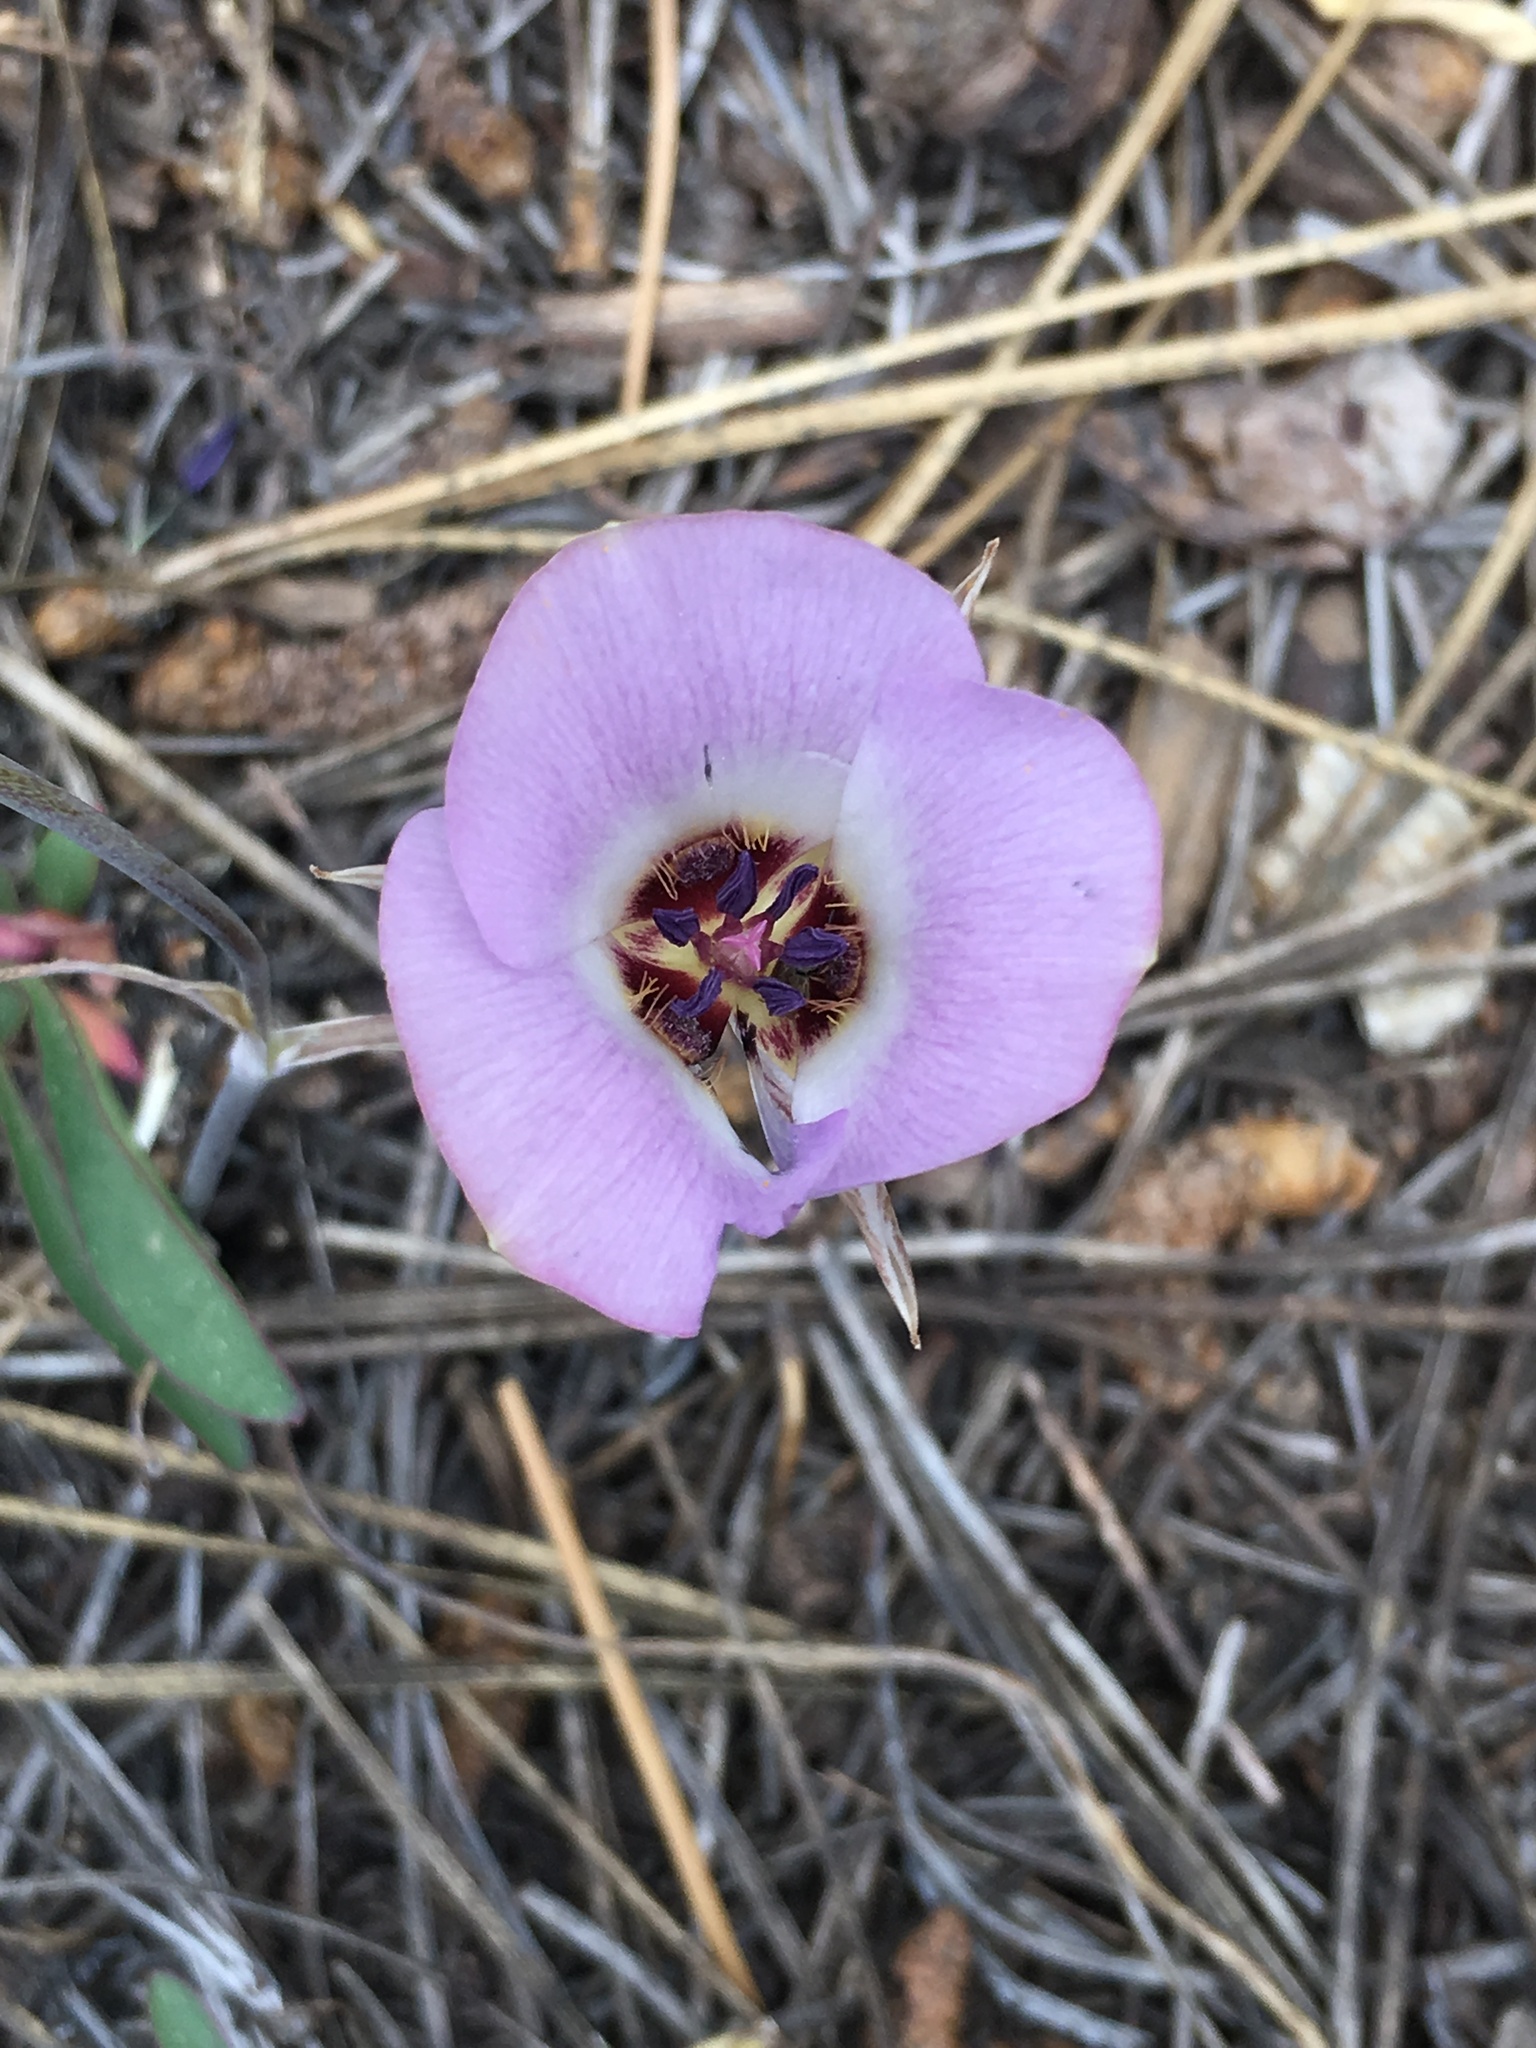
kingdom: Plantae
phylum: Tracheophyta
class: Liliopsida
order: Liliales
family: Liliaceae
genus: Calochortus
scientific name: Calochortus invenustus
